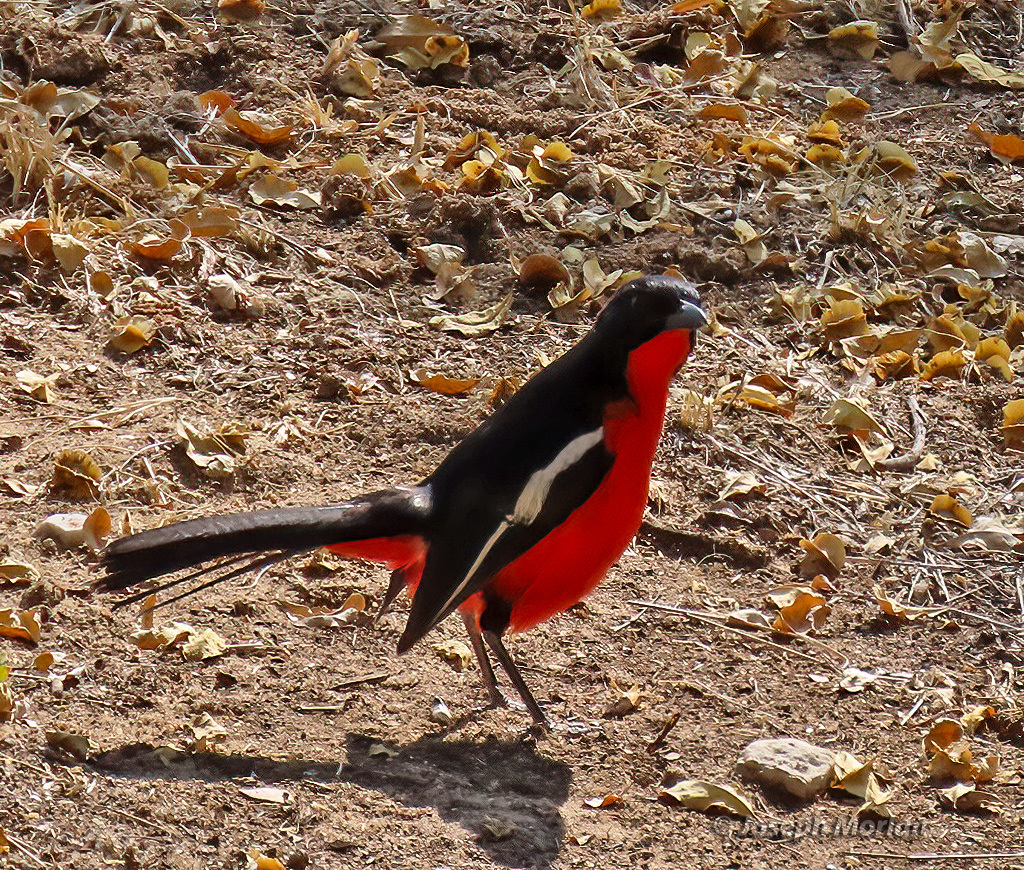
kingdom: Animalia
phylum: Chordata
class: Aves
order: Passeriformes
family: Malaconotidae
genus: Laniarius
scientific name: Laniarius atrococcineus
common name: Crimson-breasted shrike
